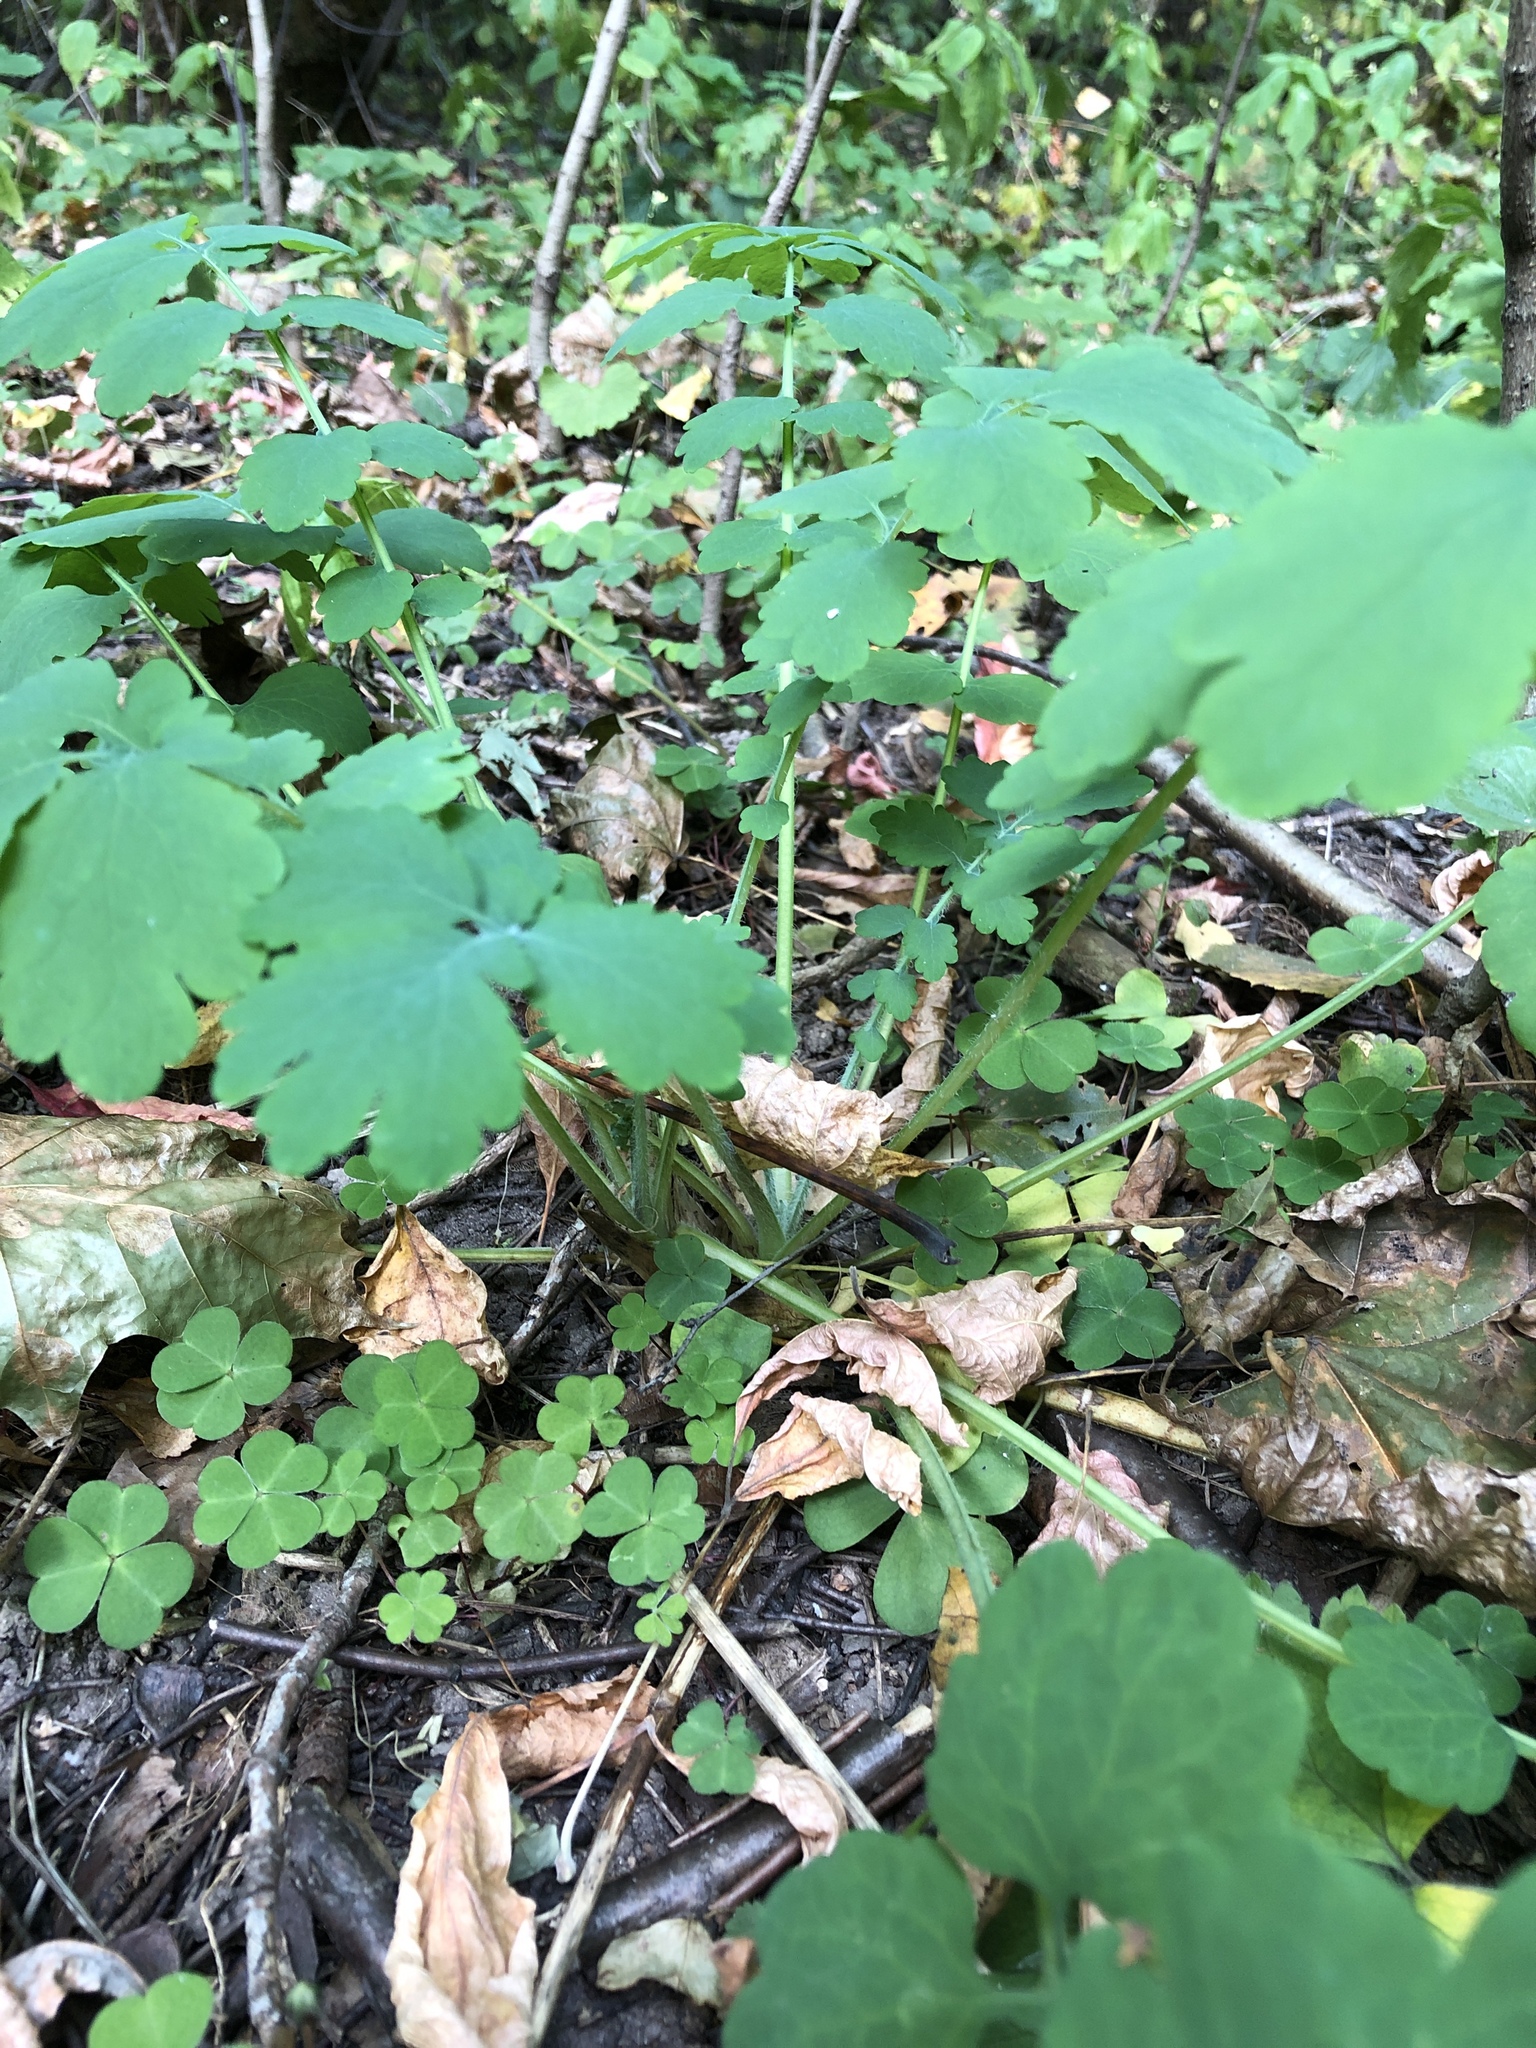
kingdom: Plantae
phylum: Tracheophyta
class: Magnoliopsida
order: Ranunculales
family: Papaveraceae
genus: Chelidonium
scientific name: Chelidonium majus
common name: Greater celandine
